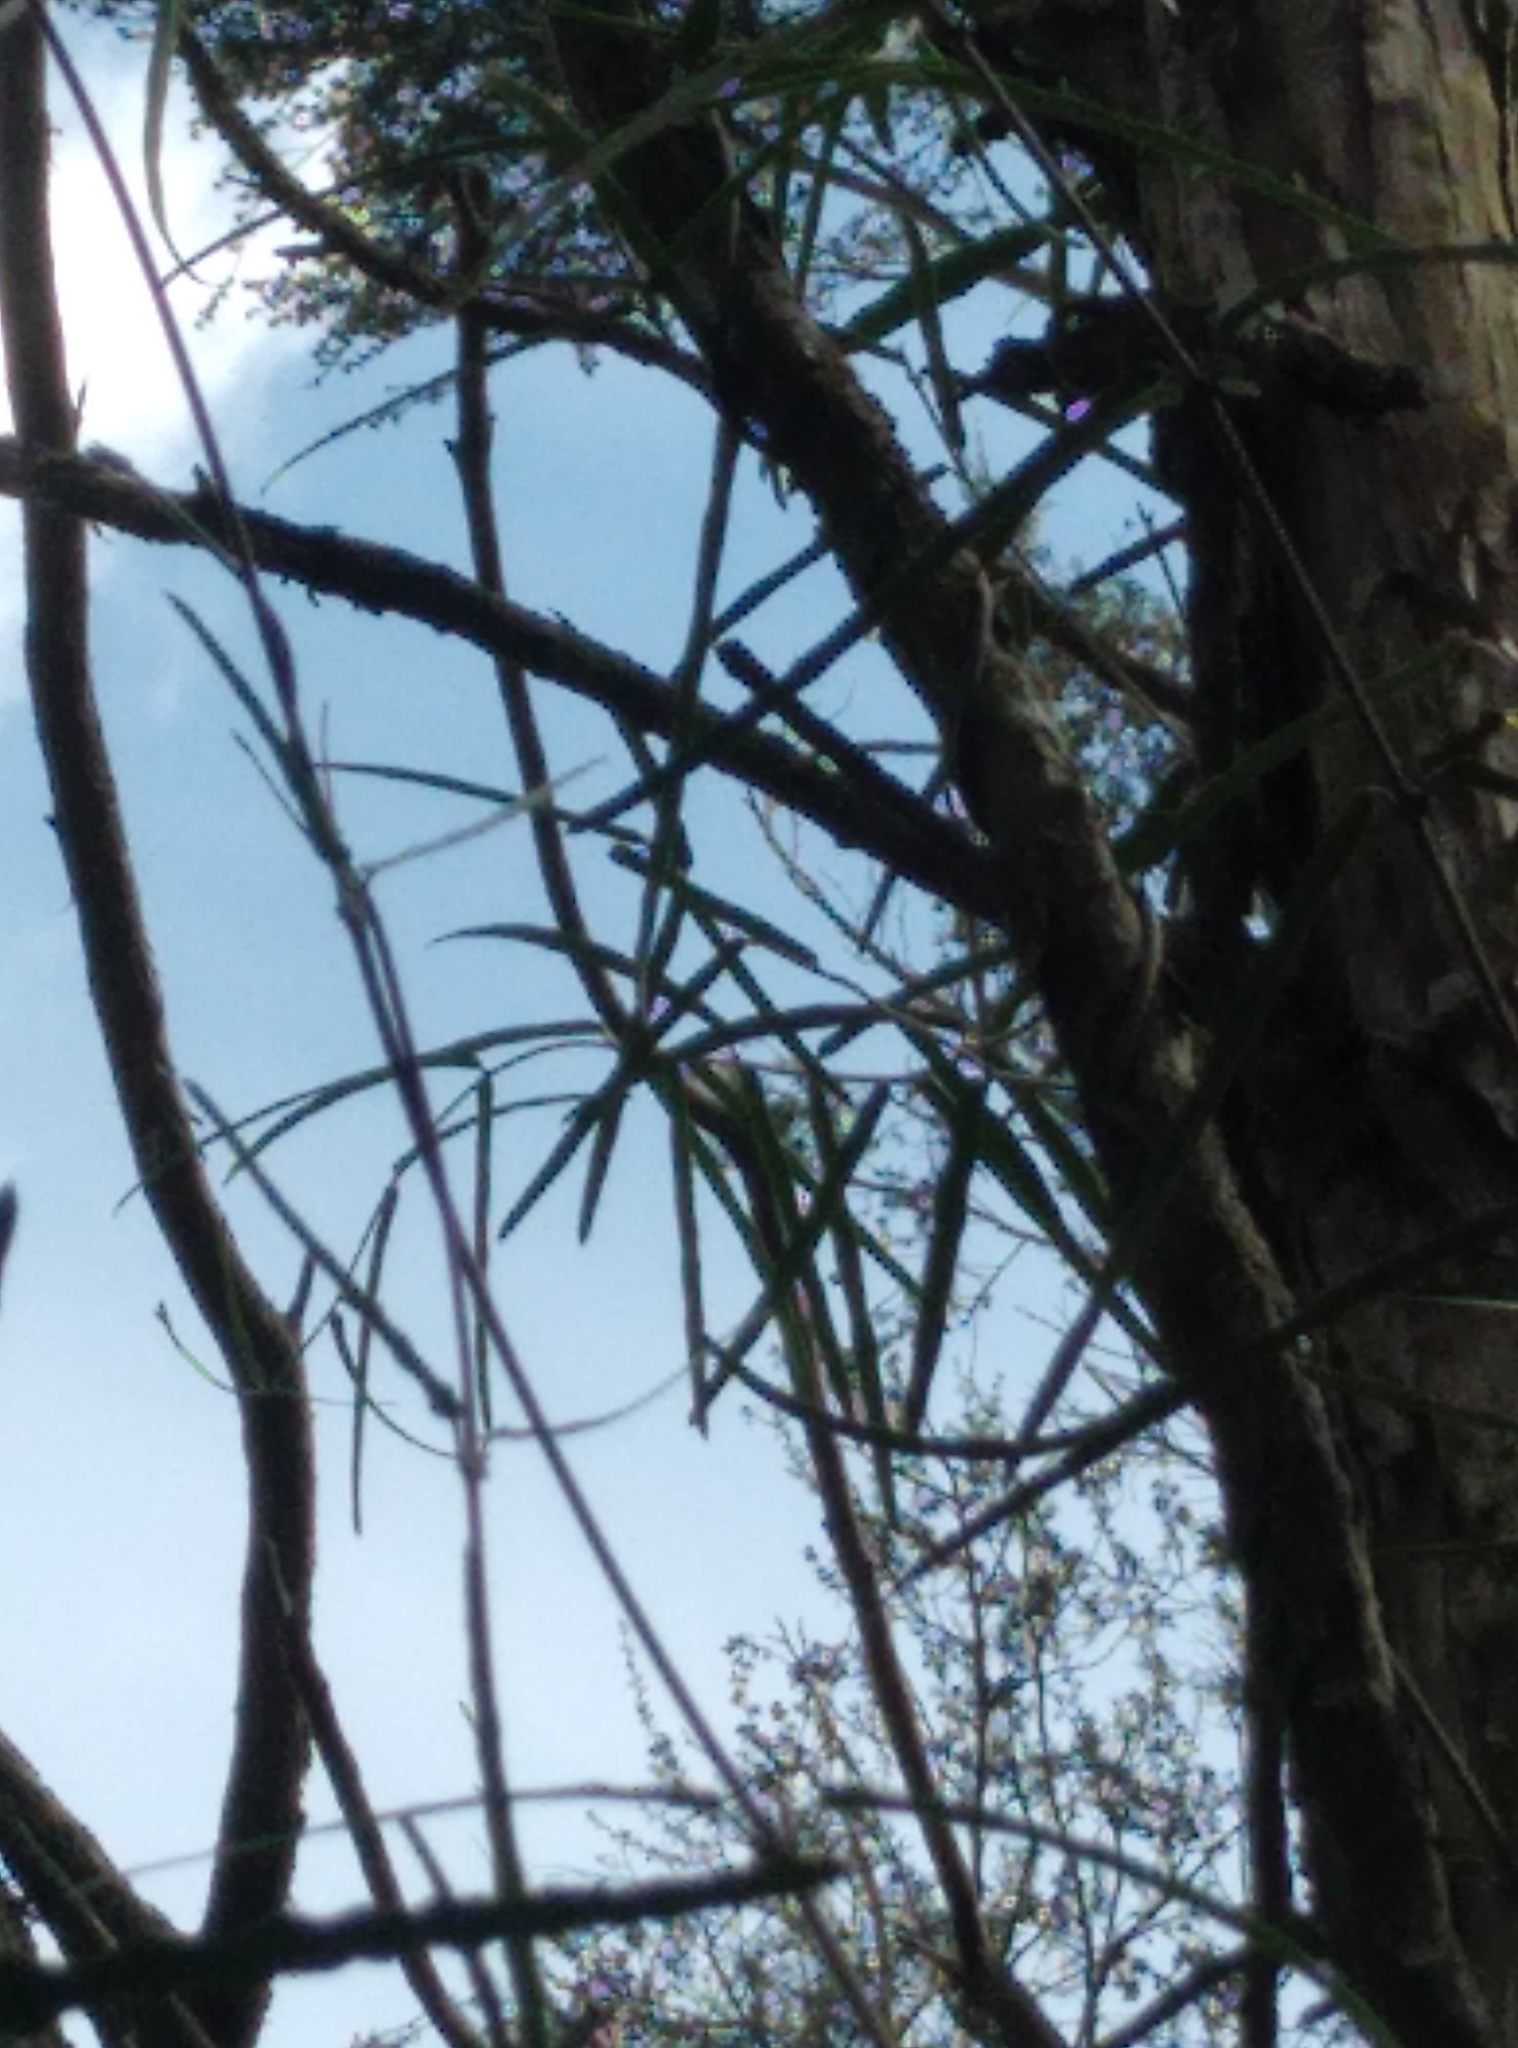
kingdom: Plantae
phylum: Tracheophyta
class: Magnoliopsida
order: Gentianales
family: Apocynaceae
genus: Parsonsia
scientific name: Parsonsia capsularis
